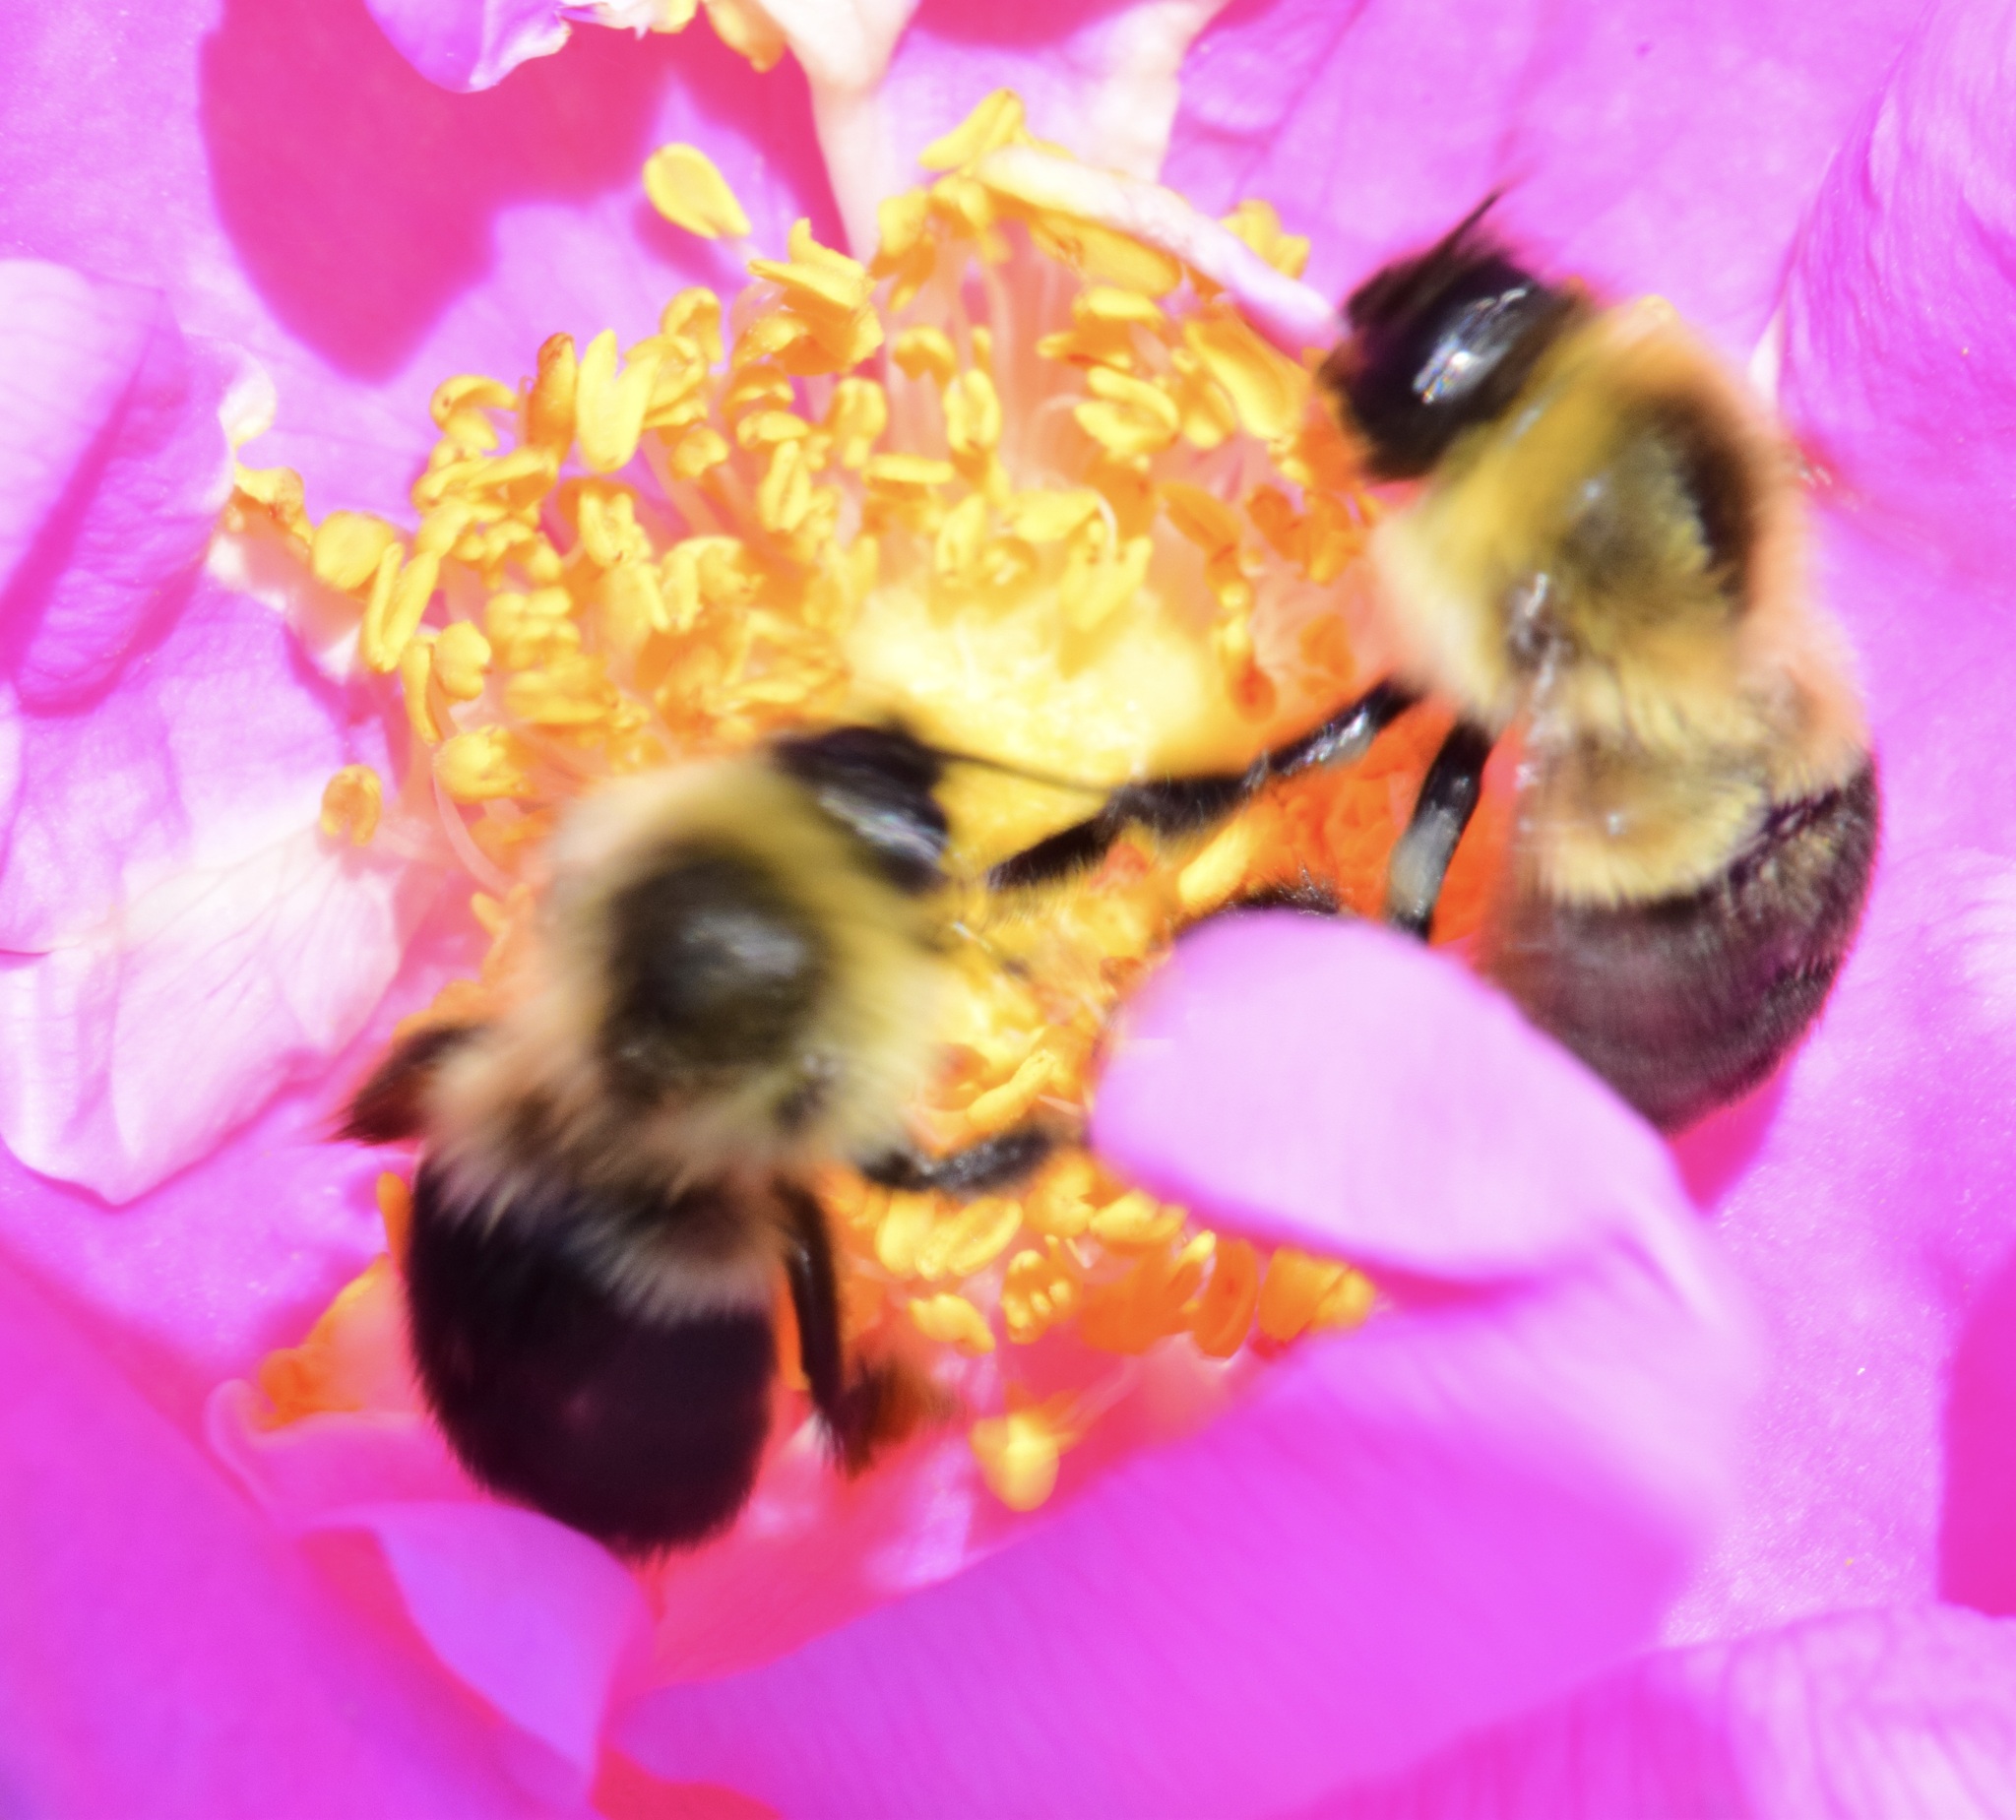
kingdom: Animalia
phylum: Arthropoda
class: Insecta
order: Hymenoptera
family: Apidae
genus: Bombus
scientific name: Bombus impatiens
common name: Common eastern bumble bee
